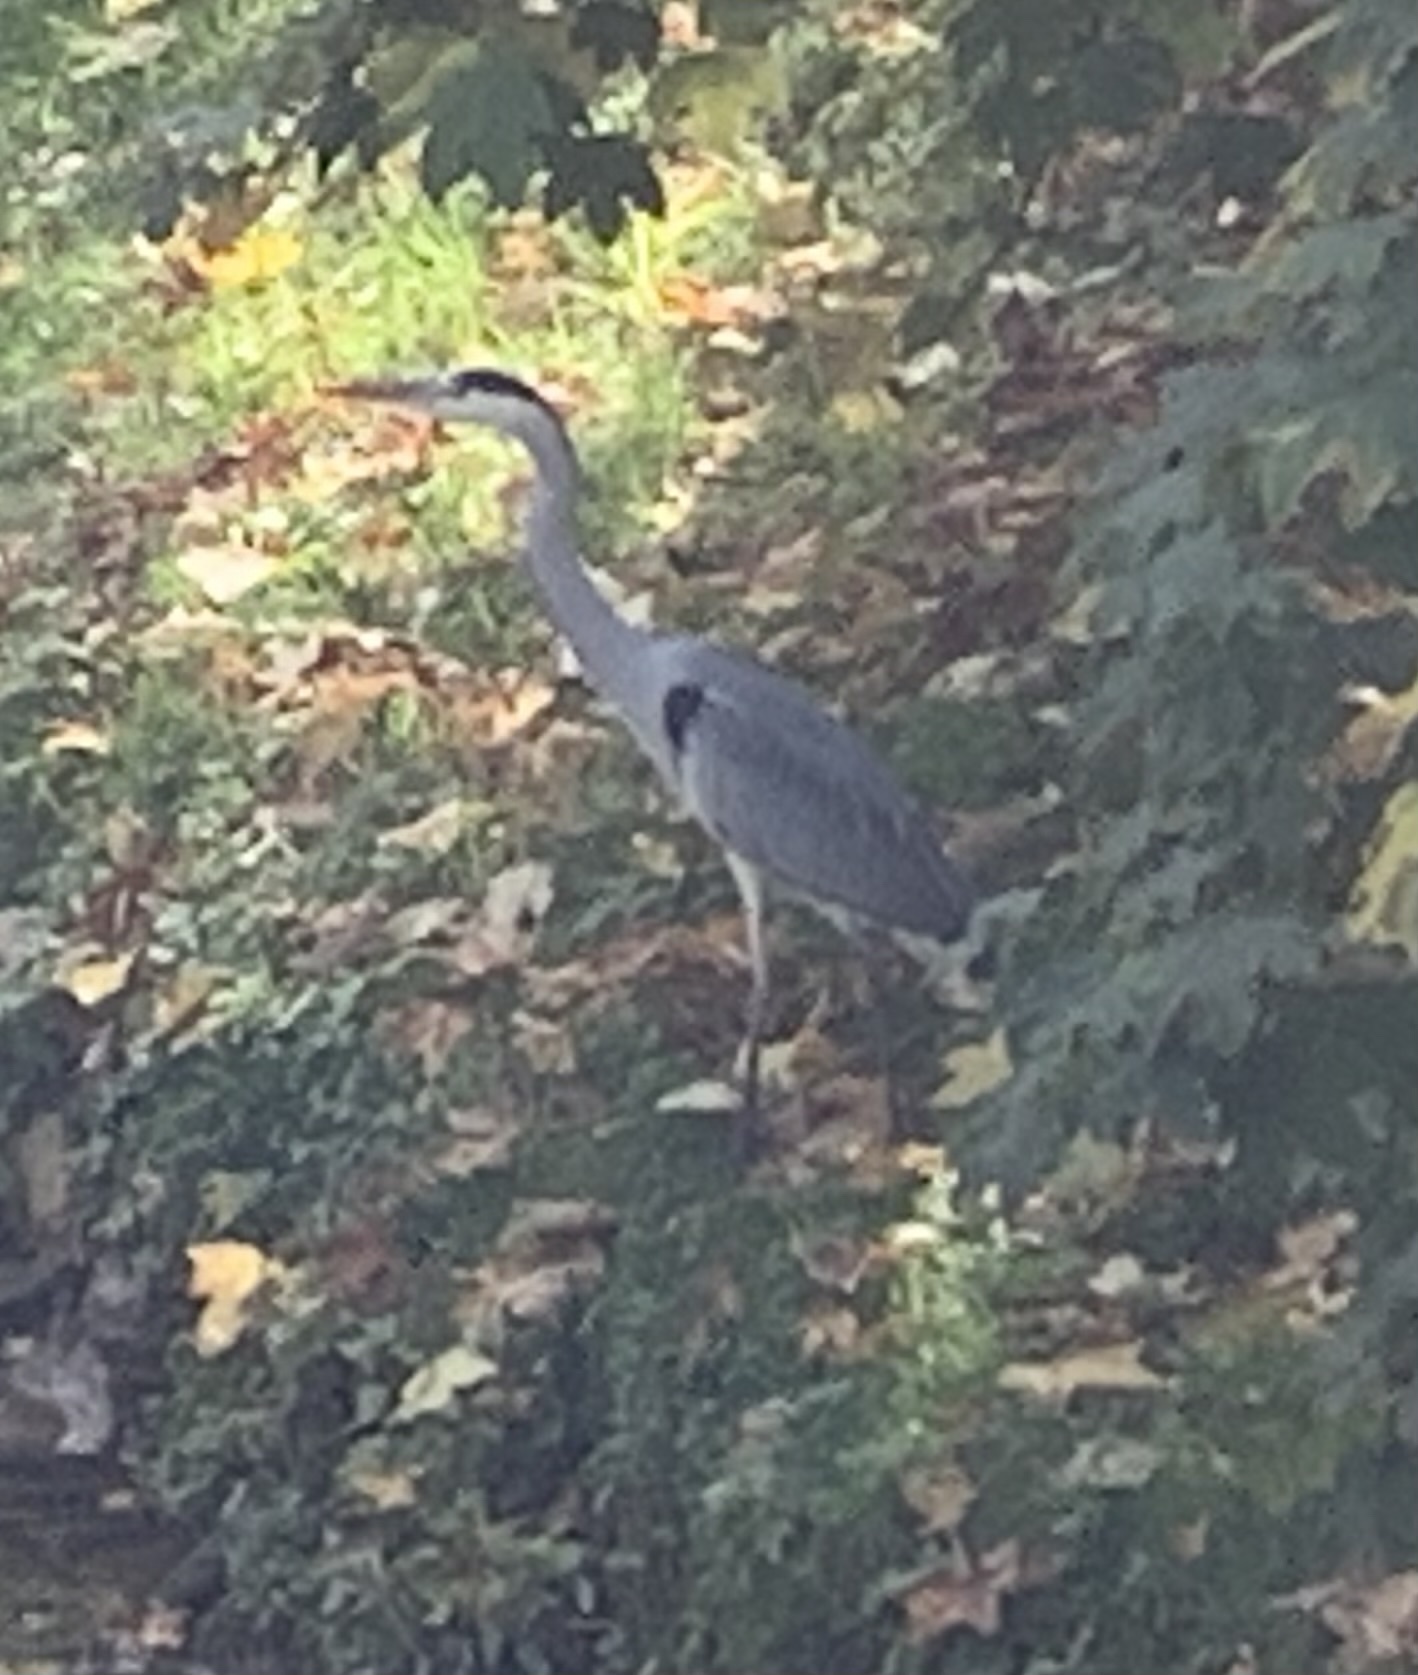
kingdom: Animalia
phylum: Chordata
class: Aves
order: Pelecaniformes
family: Ardeidae
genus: Ardea
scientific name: Ardea cinerea
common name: Grey heron
